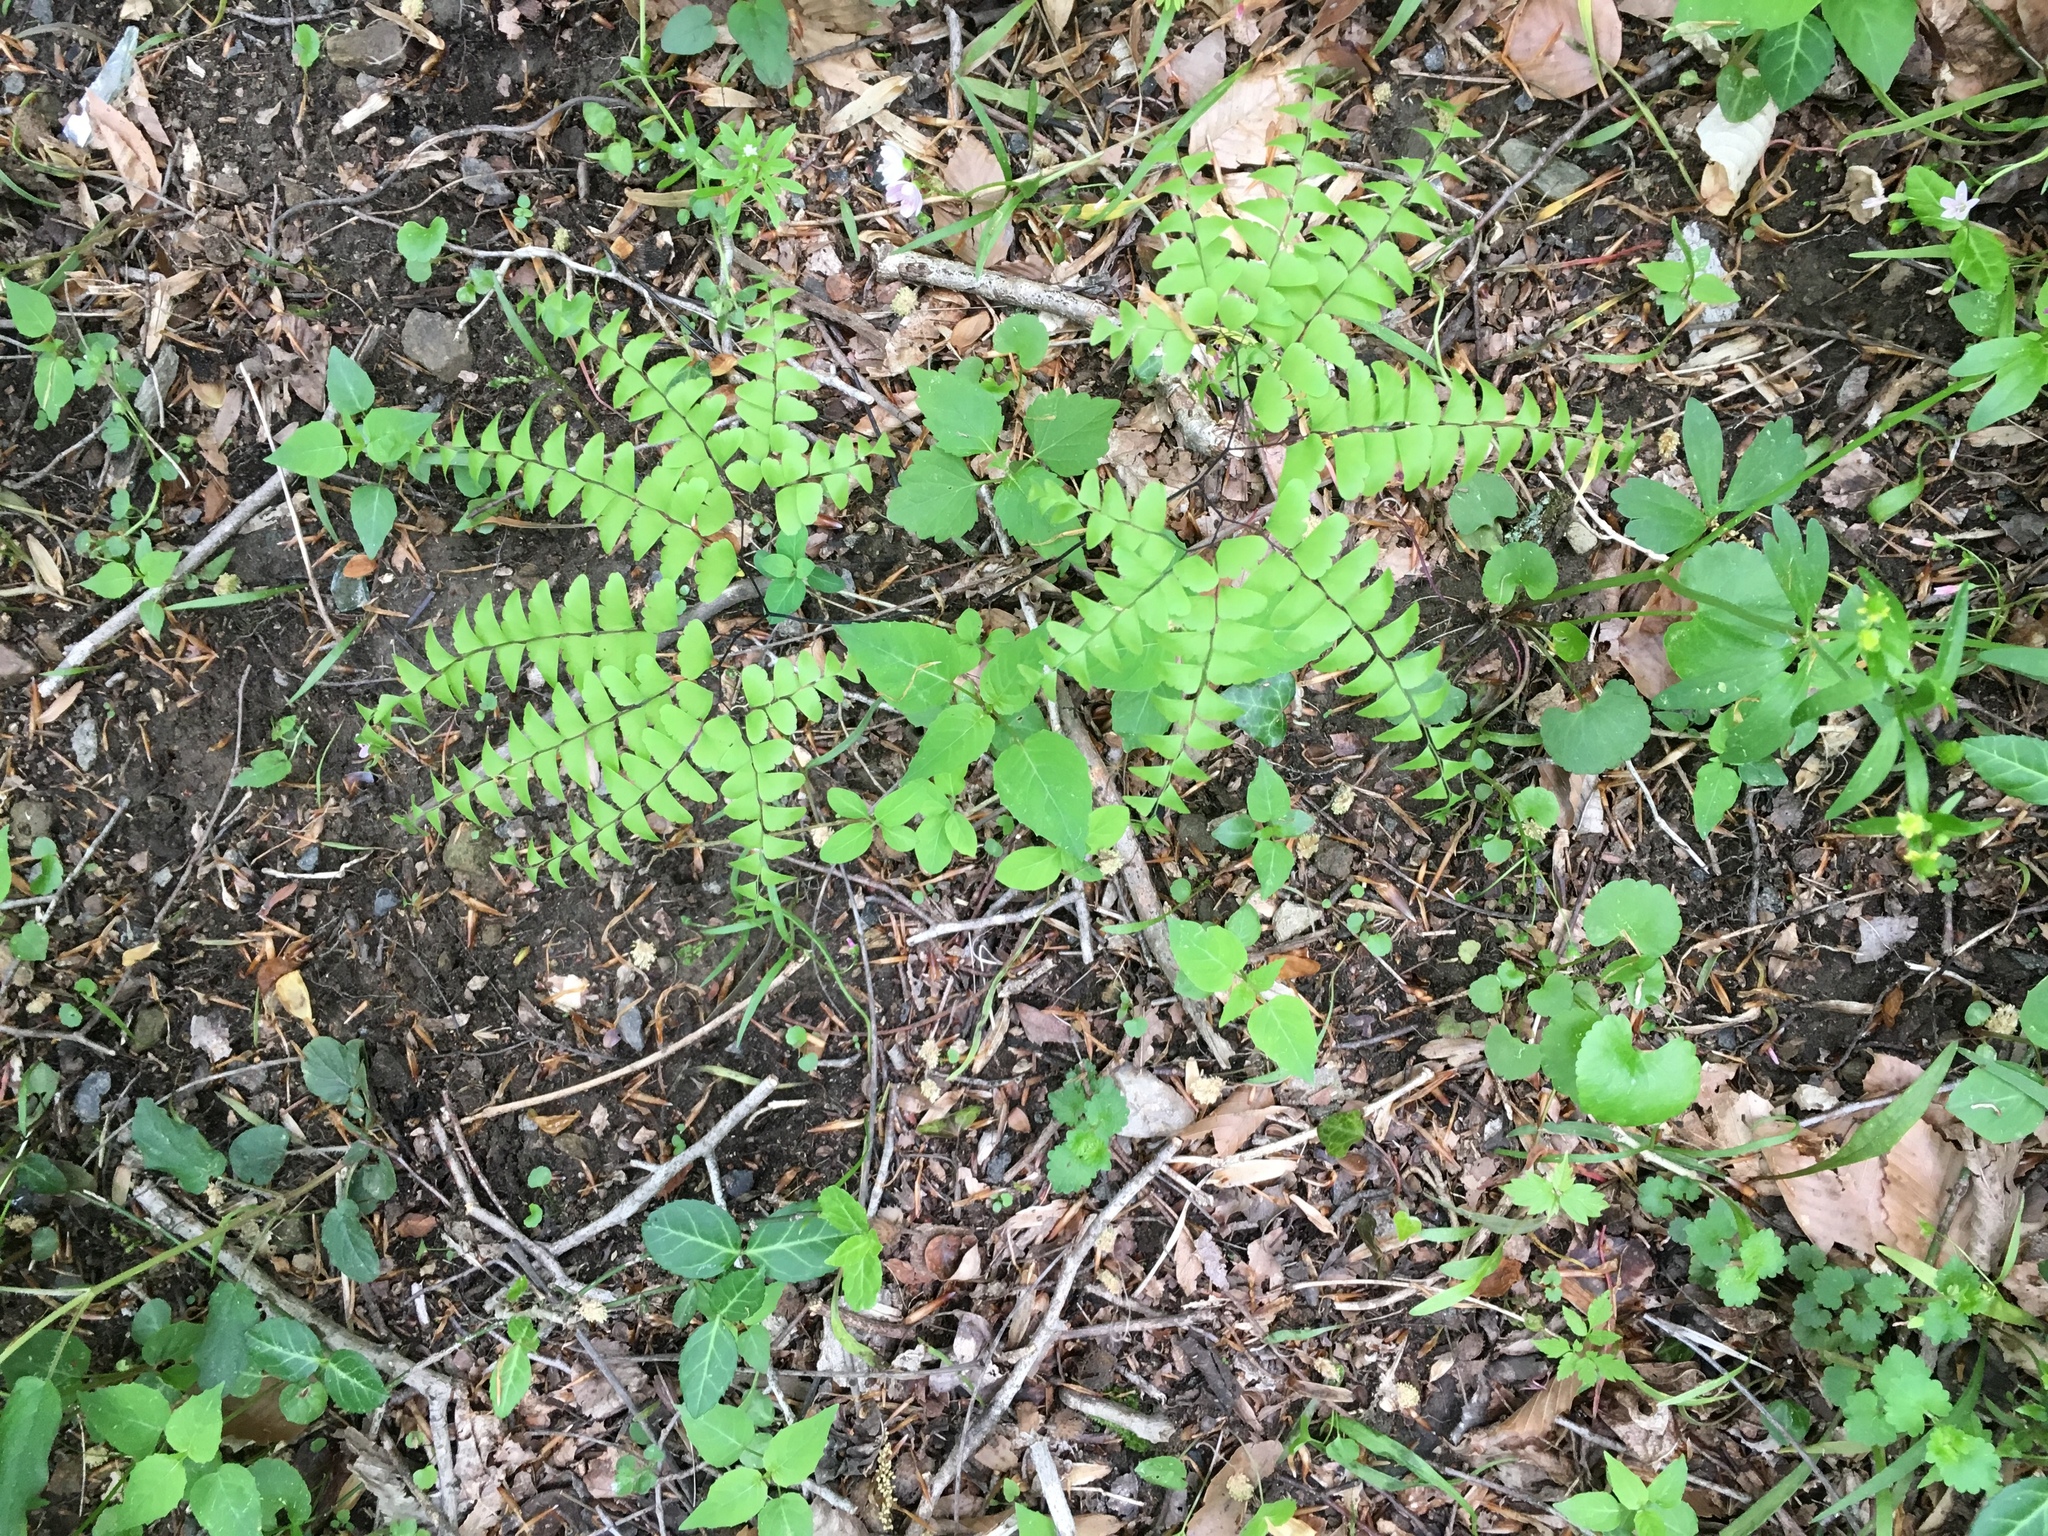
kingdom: Plantae
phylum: Tracheophyta
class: Polypodiopsida
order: Polypodiales
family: Pteridaceae
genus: Adiantum
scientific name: Adiantum pedatum
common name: Five-finger fern
